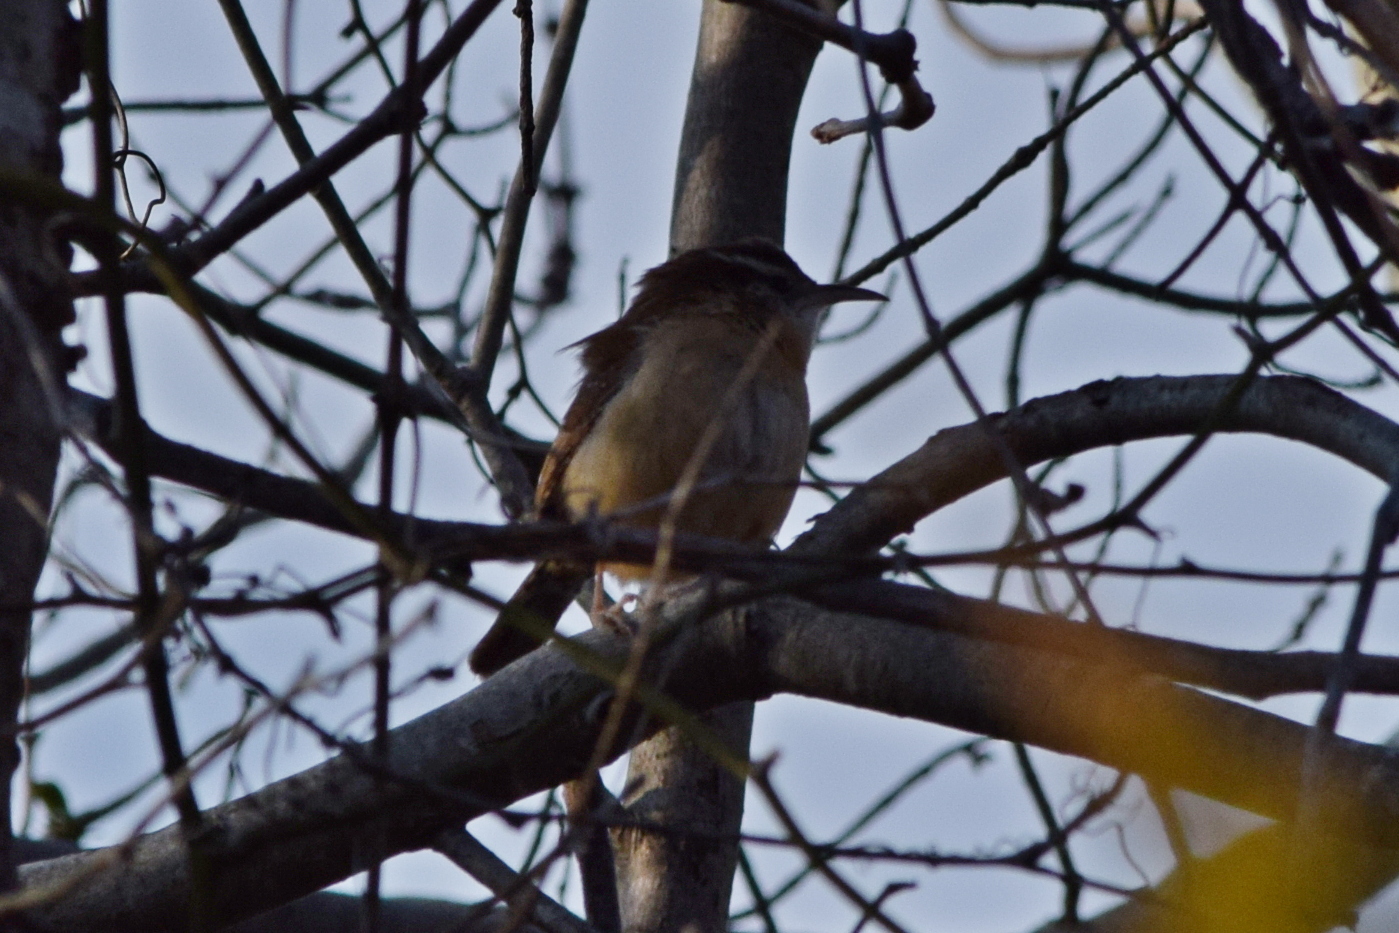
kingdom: Animalia
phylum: Chordata
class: Aves
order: Passeriformes
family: Troglodytidae
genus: Thryothorus
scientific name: Thryothorus ludovicianus
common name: Carolina wren
